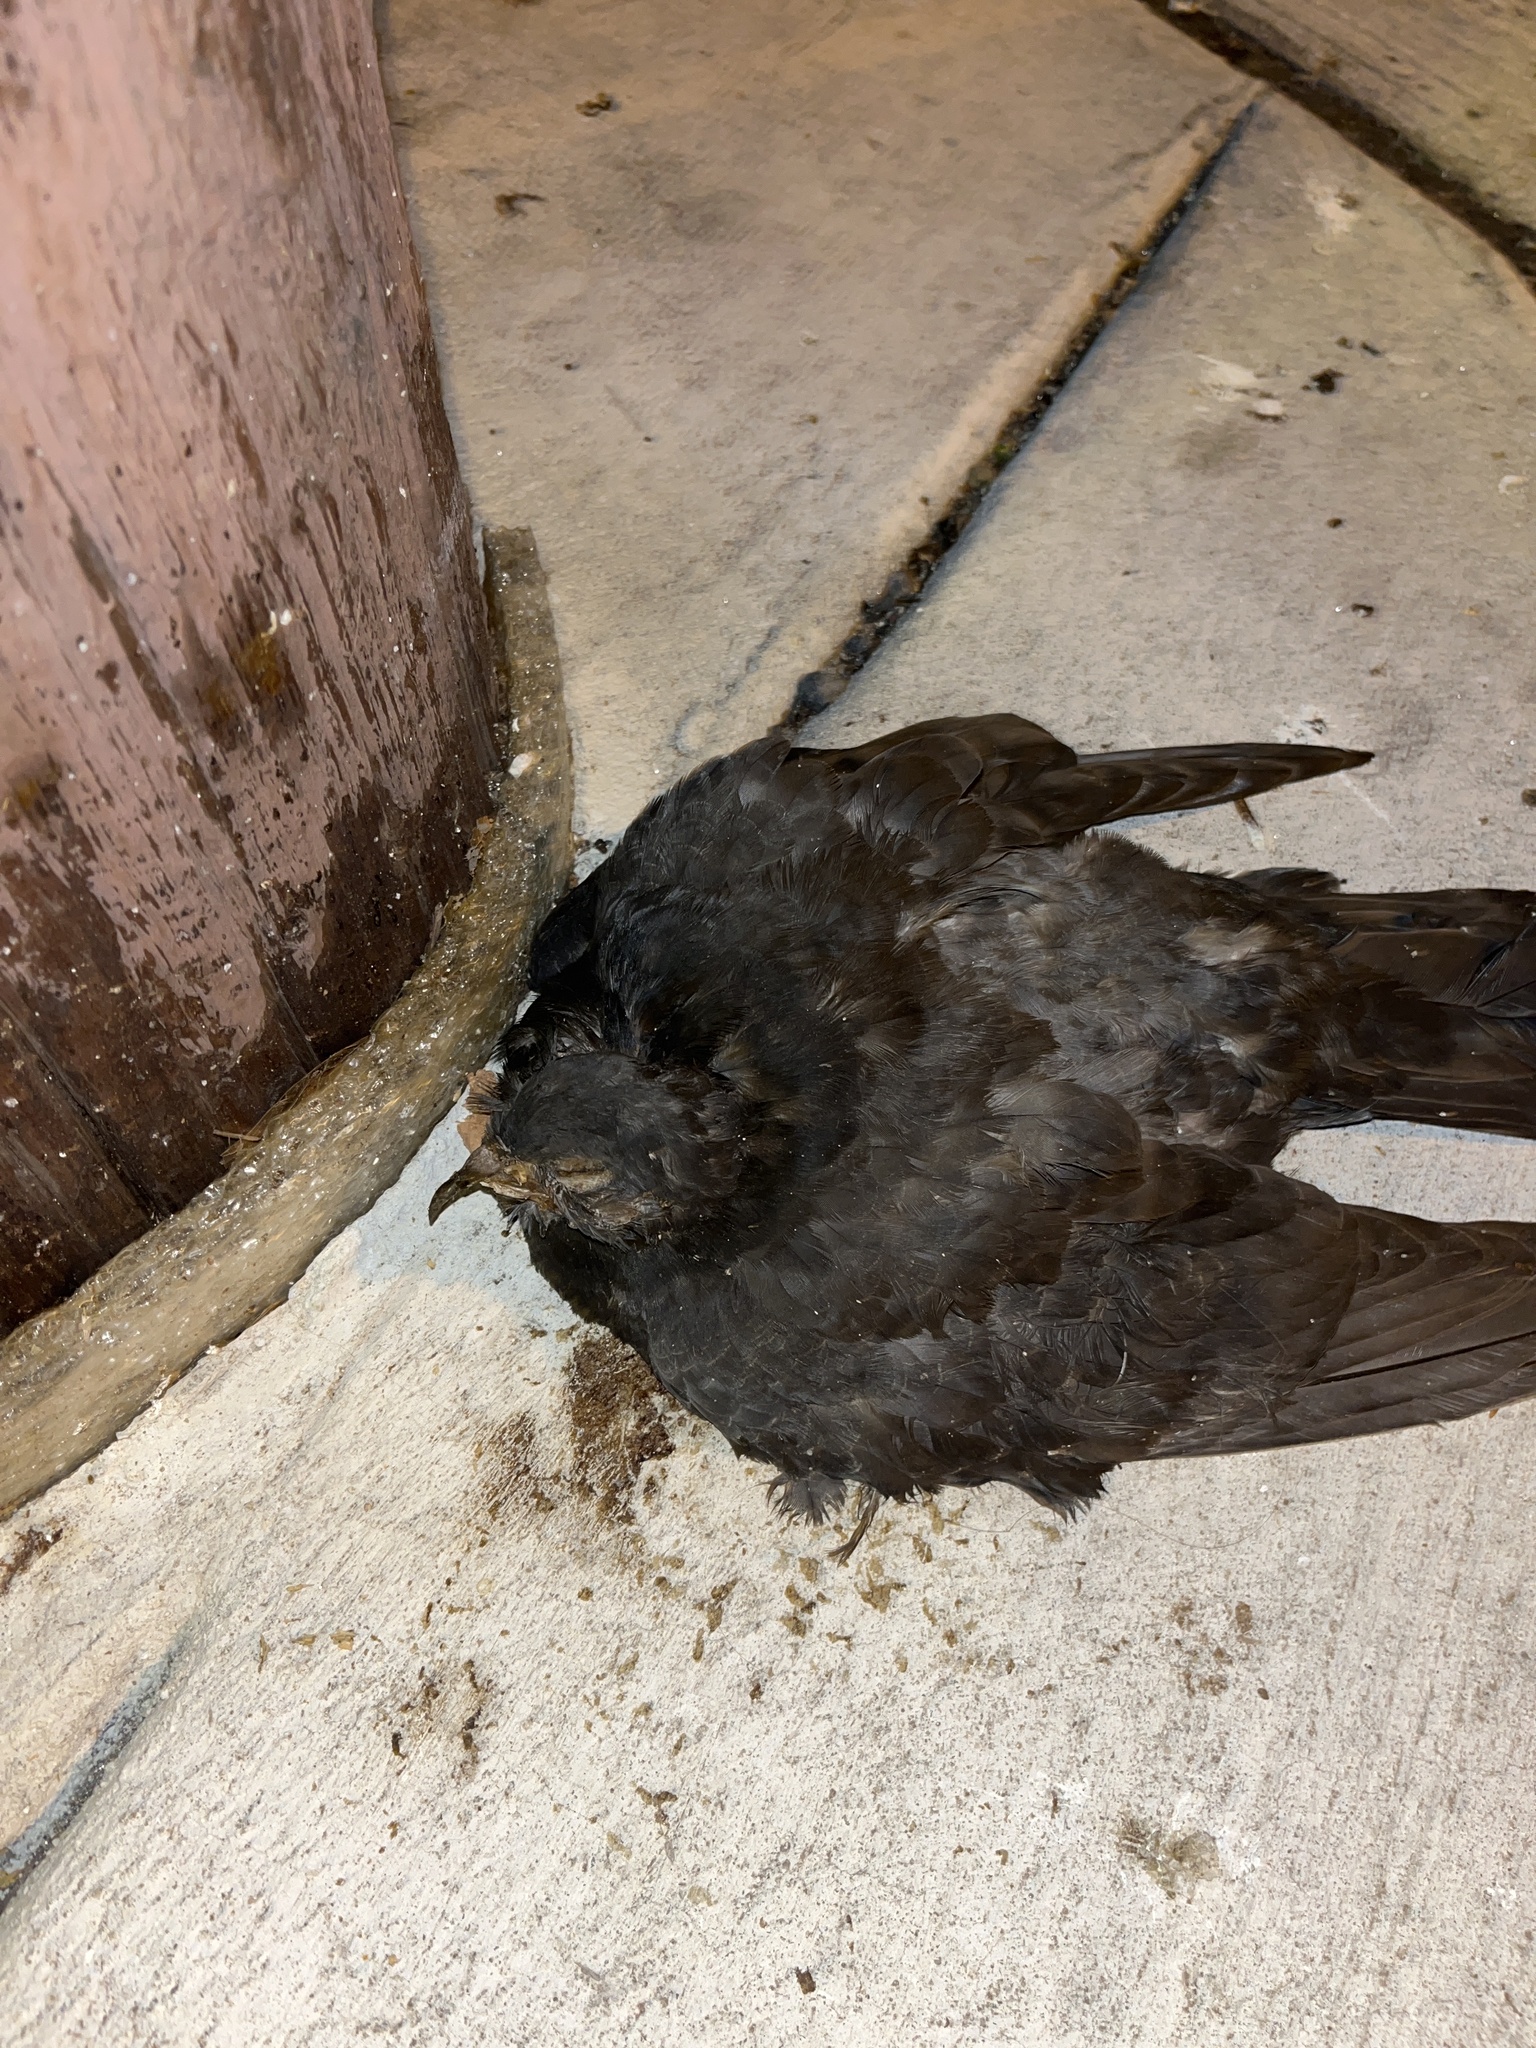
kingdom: Animalia
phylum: Chordata
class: Aves
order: Columbiformes
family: Columbidae
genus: Columba
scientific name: Columba livia
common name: Rock pigeon
